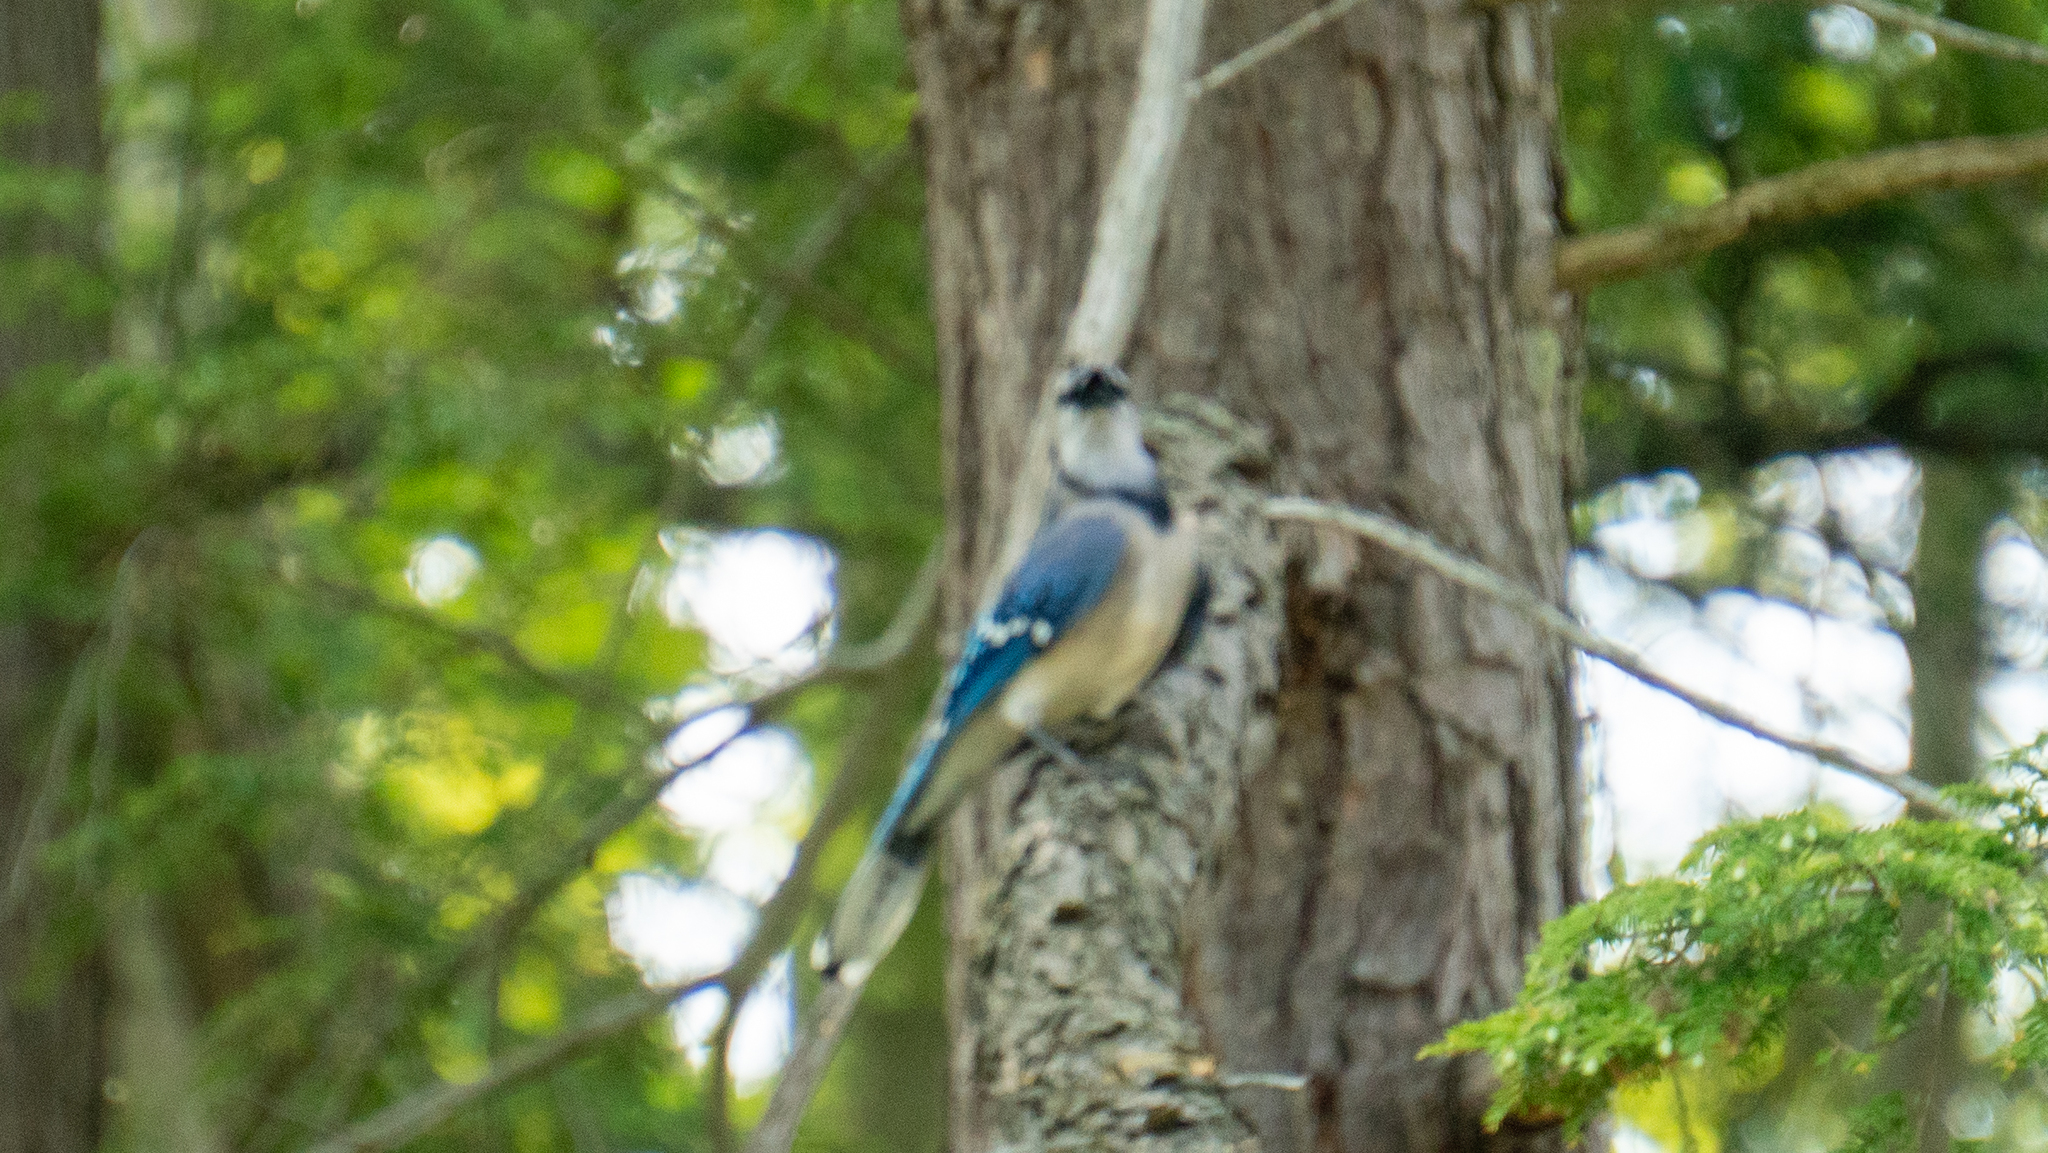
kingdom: Animalia
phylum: Chordata
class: Aves
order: Passeriformes
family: Corvidae
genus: Cyanocitta
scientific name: Cyanocitta cristata
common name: Blue jay
